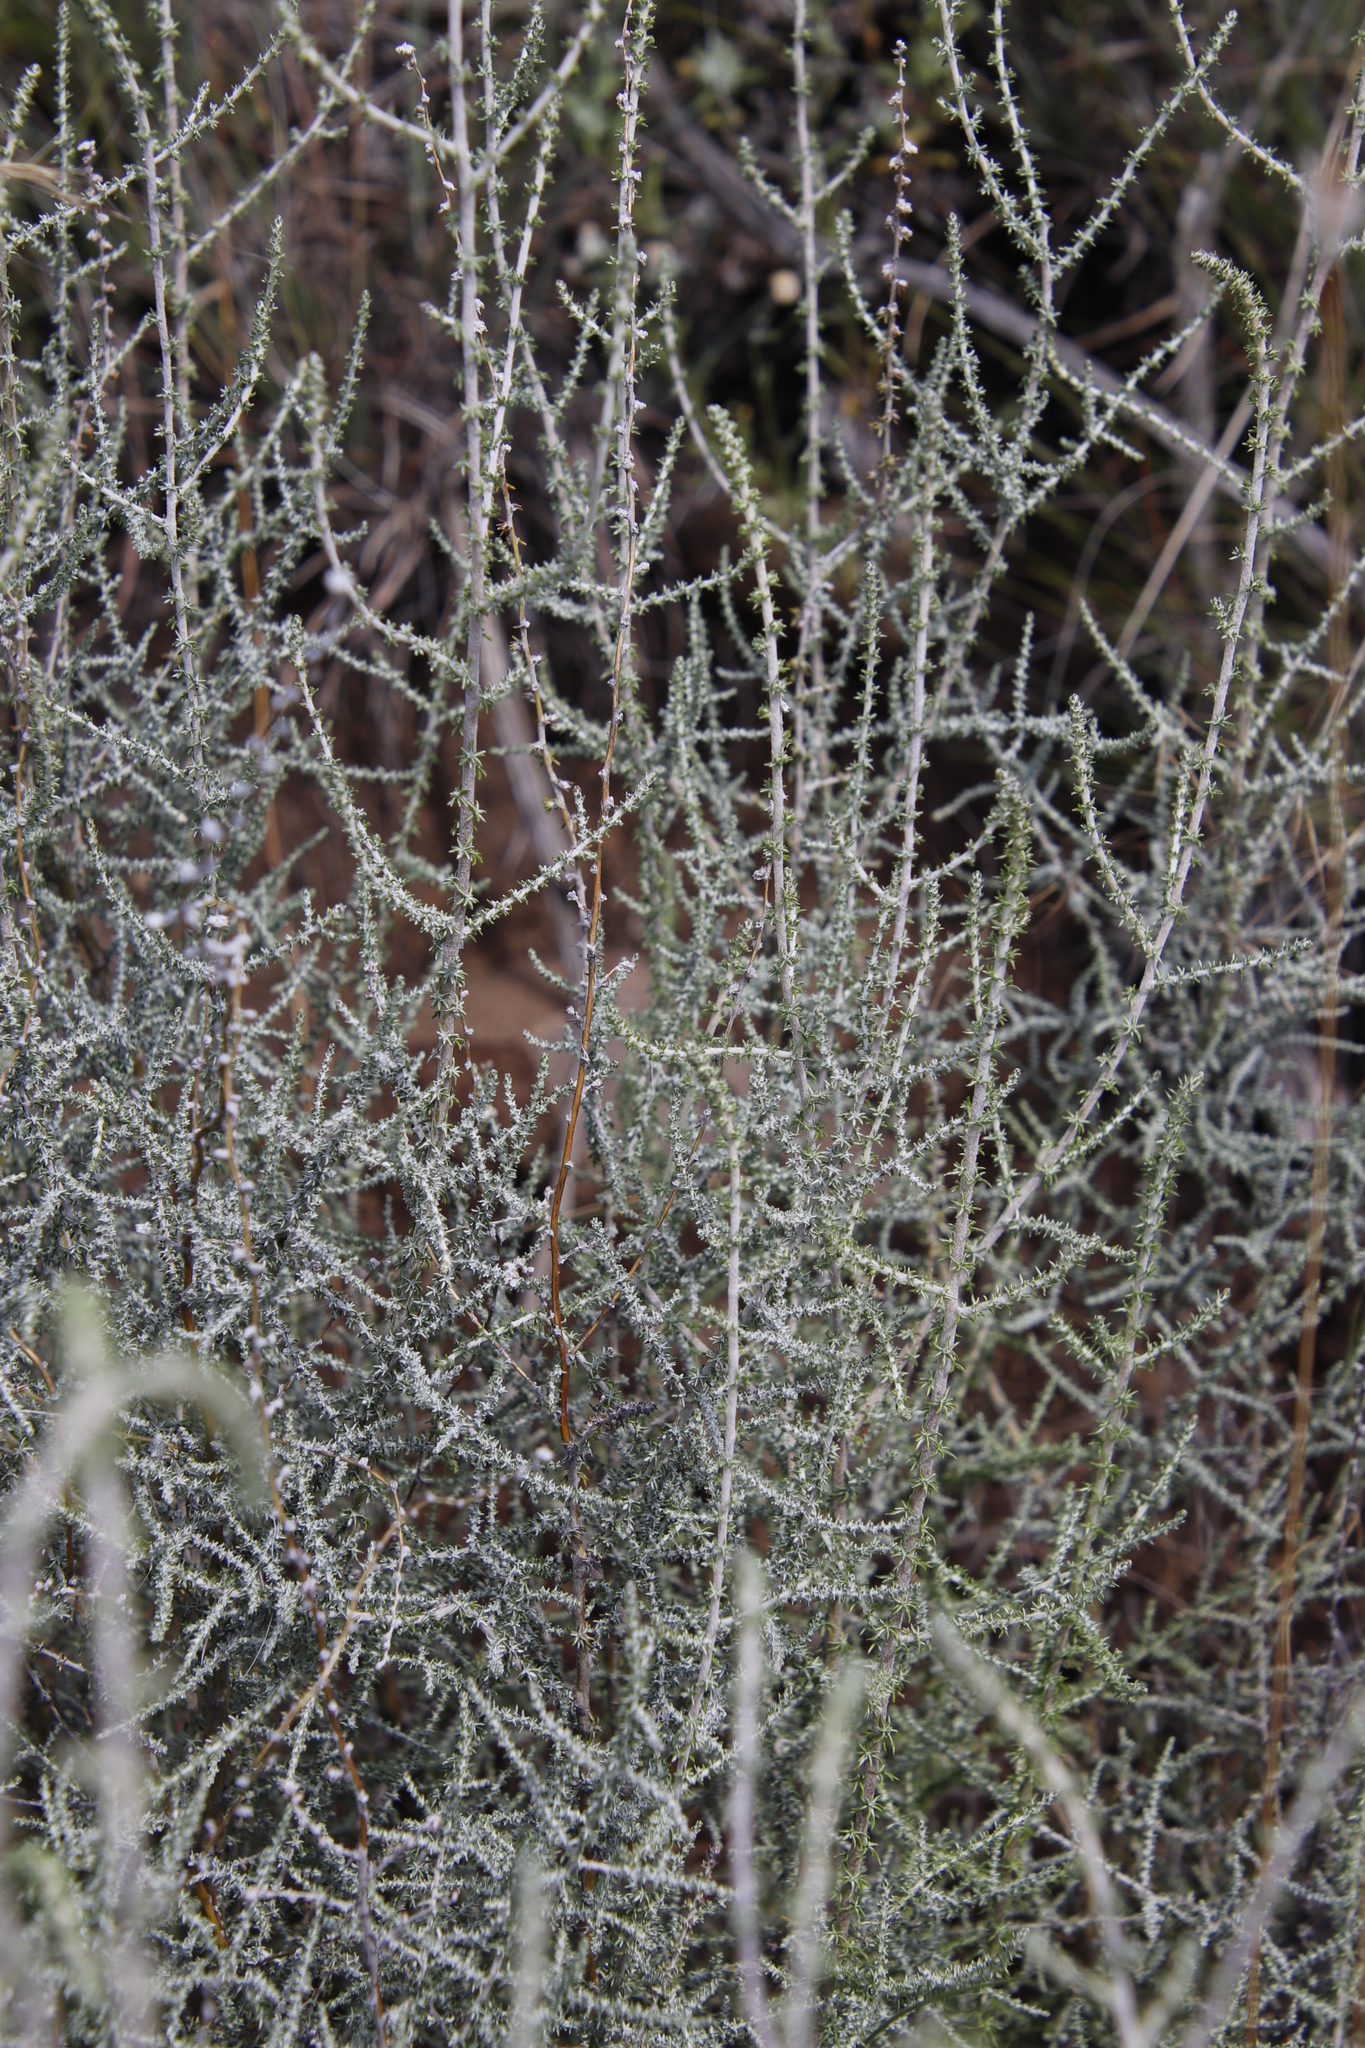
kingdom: Plantae
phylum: Tracheophyta
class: Magnoliopsida
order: Asterales
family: Asteraceae
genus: Seriphium
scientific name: Seriphium
